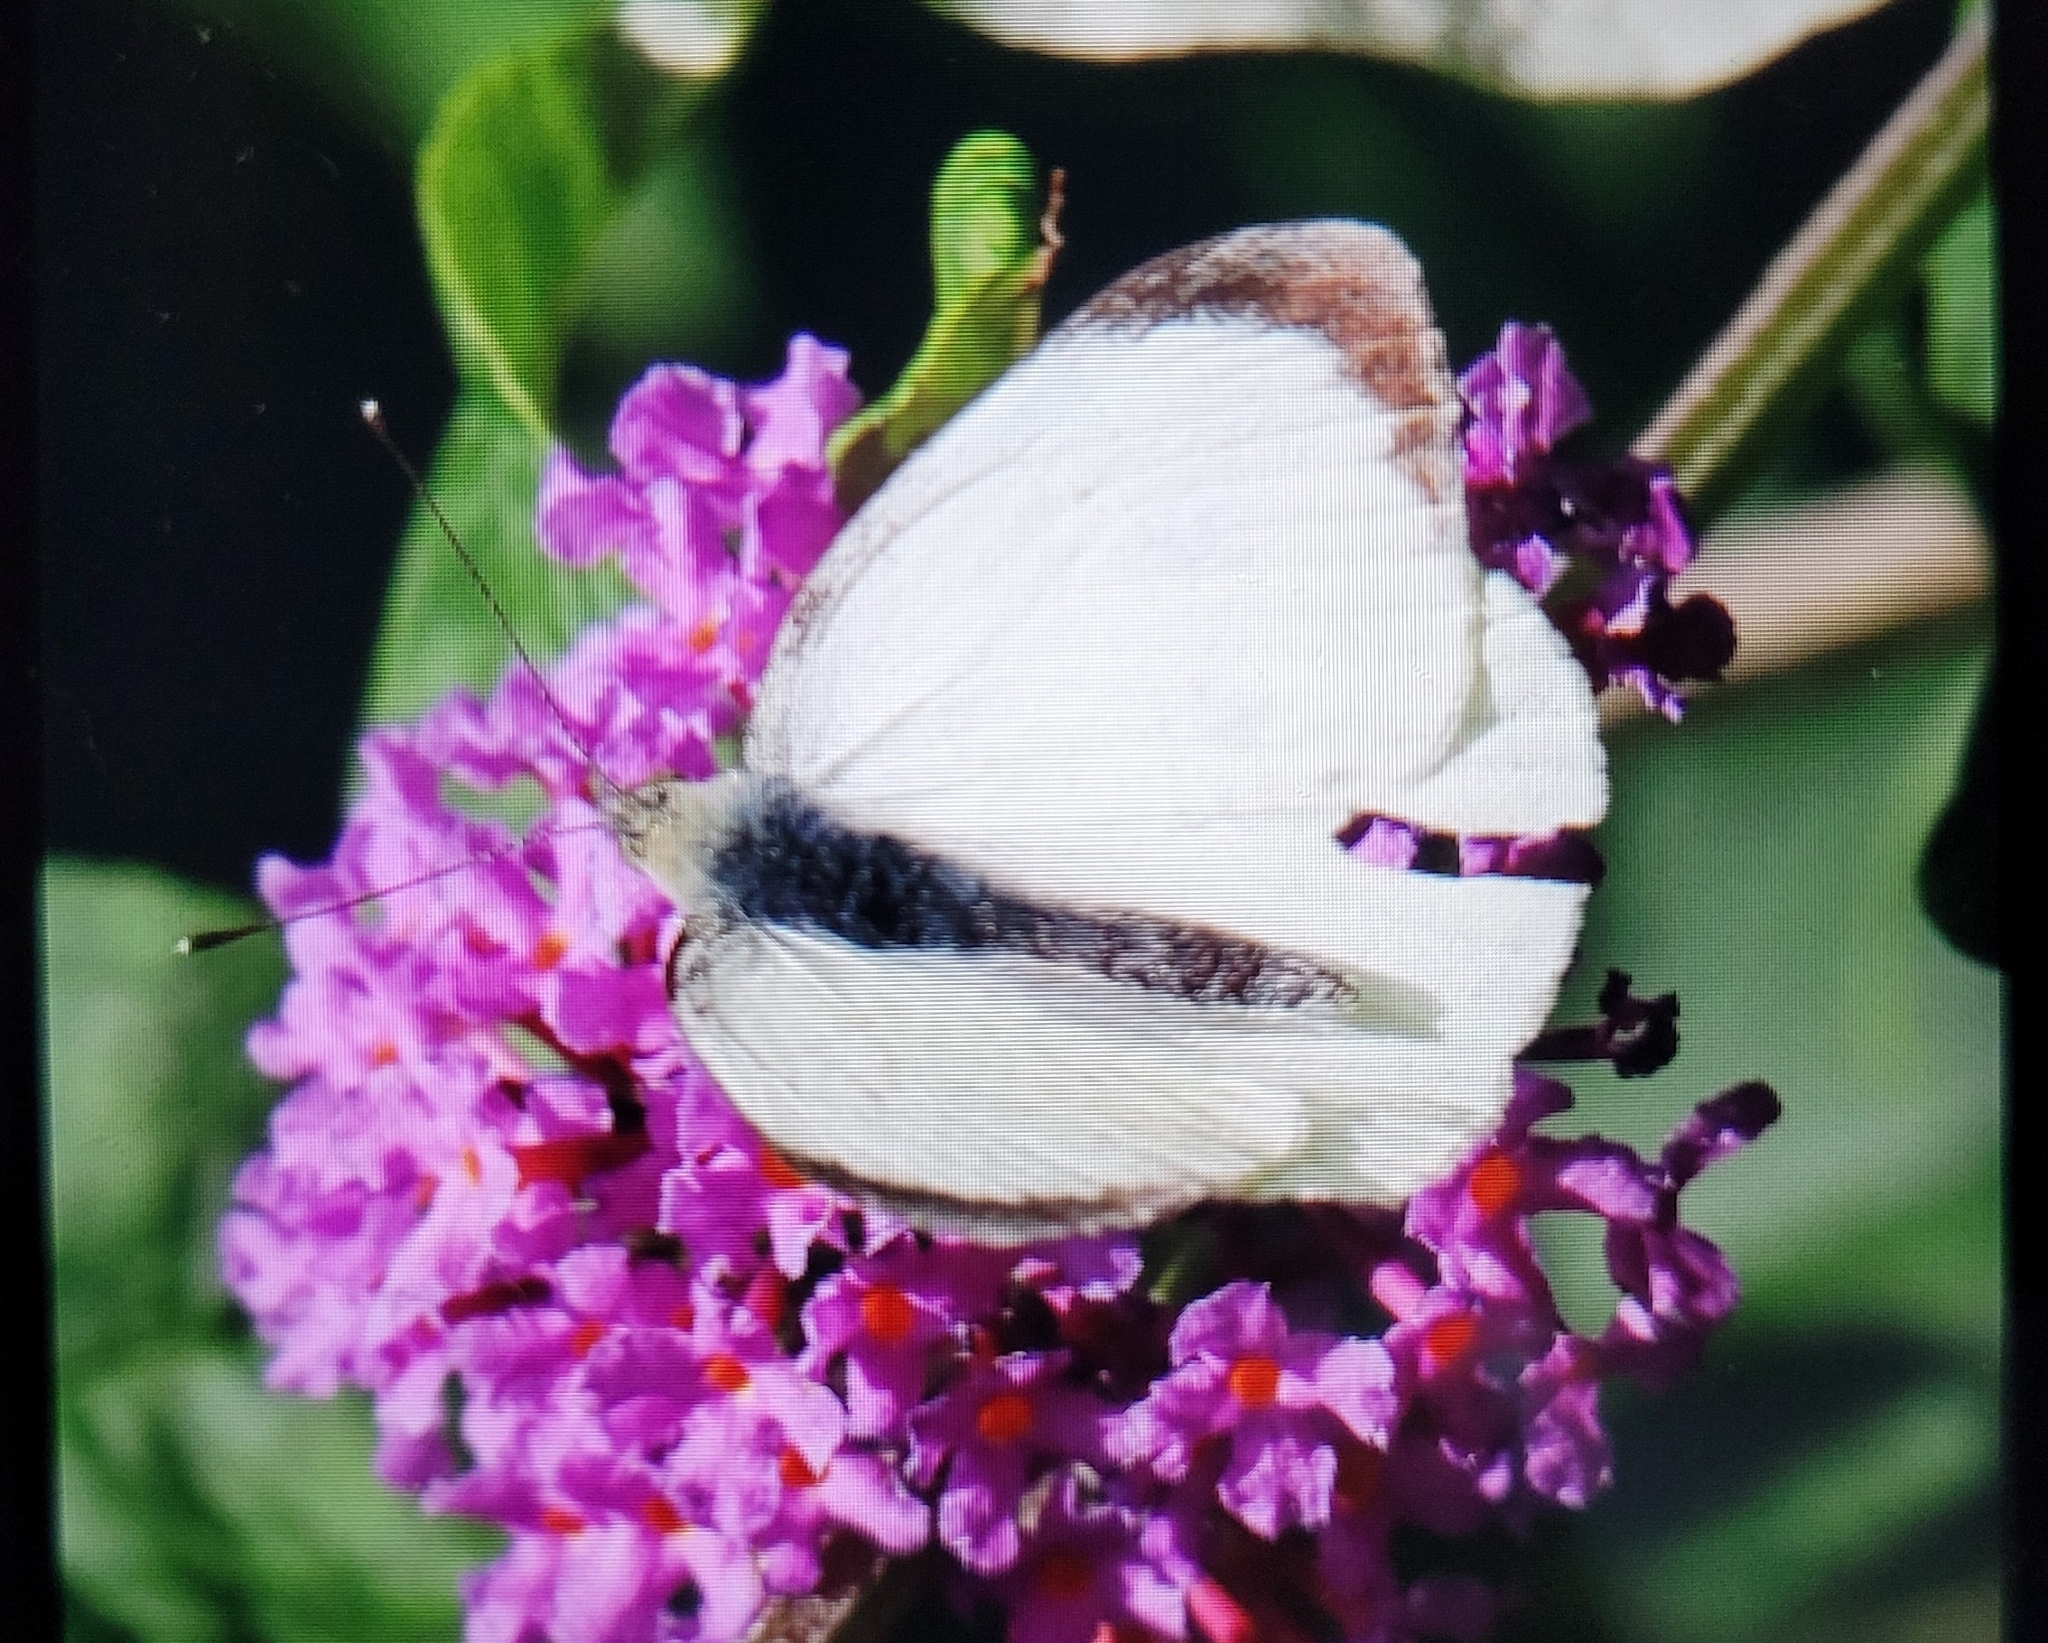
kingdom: Animalia
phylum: Arthropoda
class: Insecta
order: Lepidoptera
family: Pieridae
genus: Pieris
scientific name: Pieris brassicae
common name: Large white
